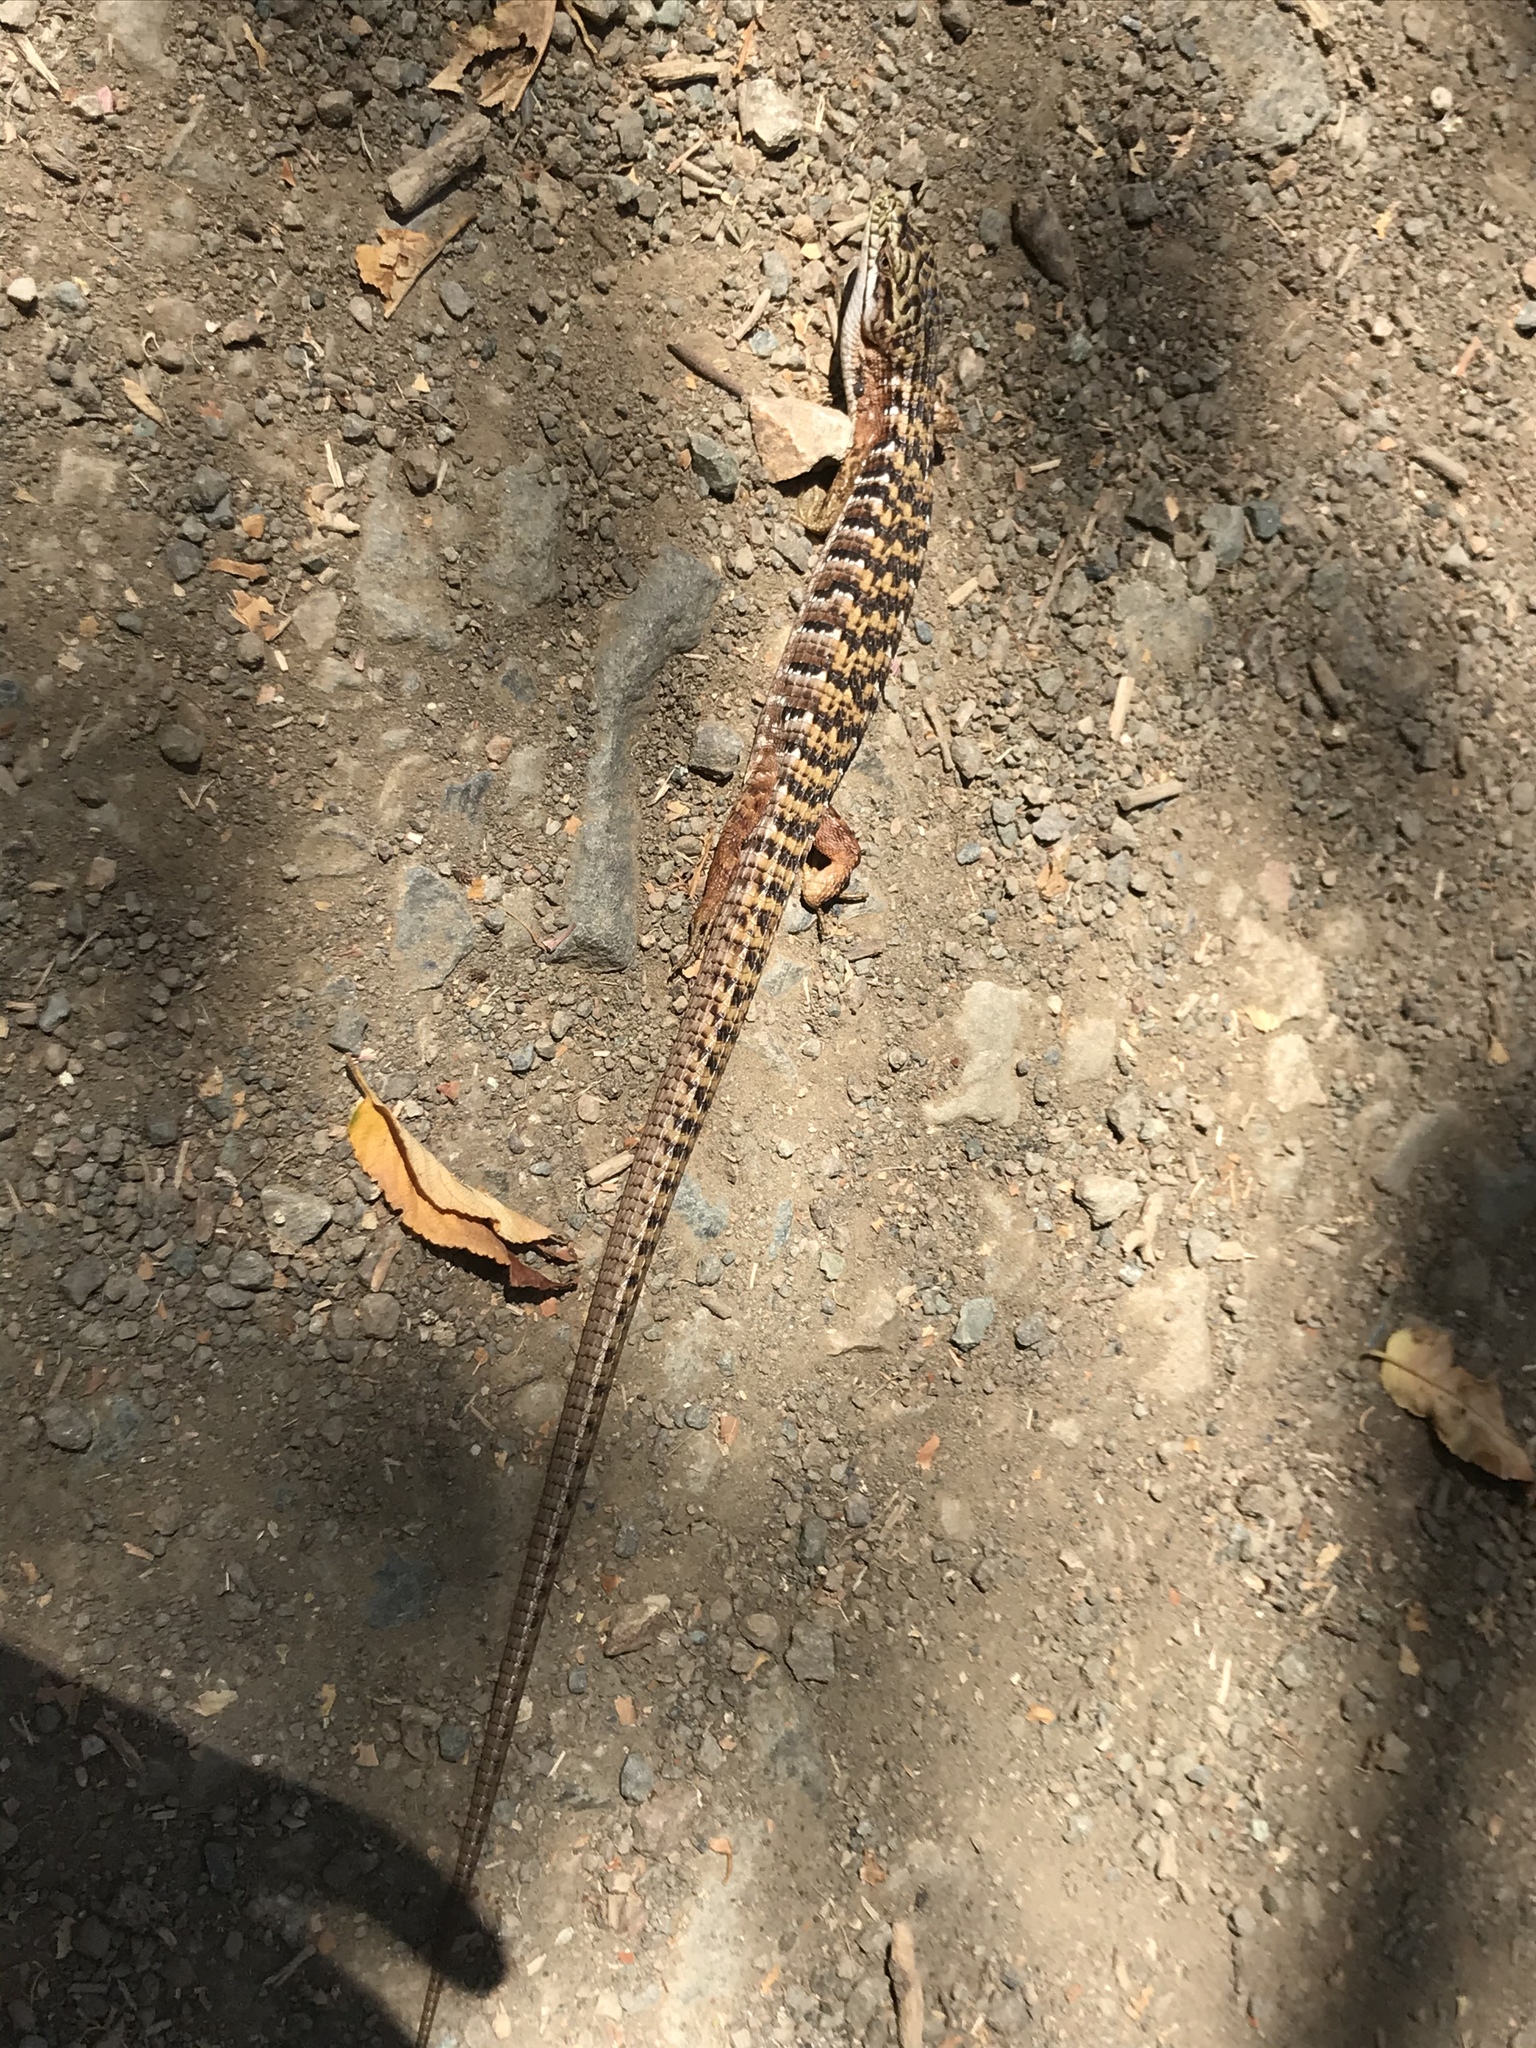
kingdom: Animalia
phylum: Chordata
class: Squamata
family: Anguidae
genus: Elgaria
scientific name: Elgaria multicarinata
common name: Southern alligator lizard
